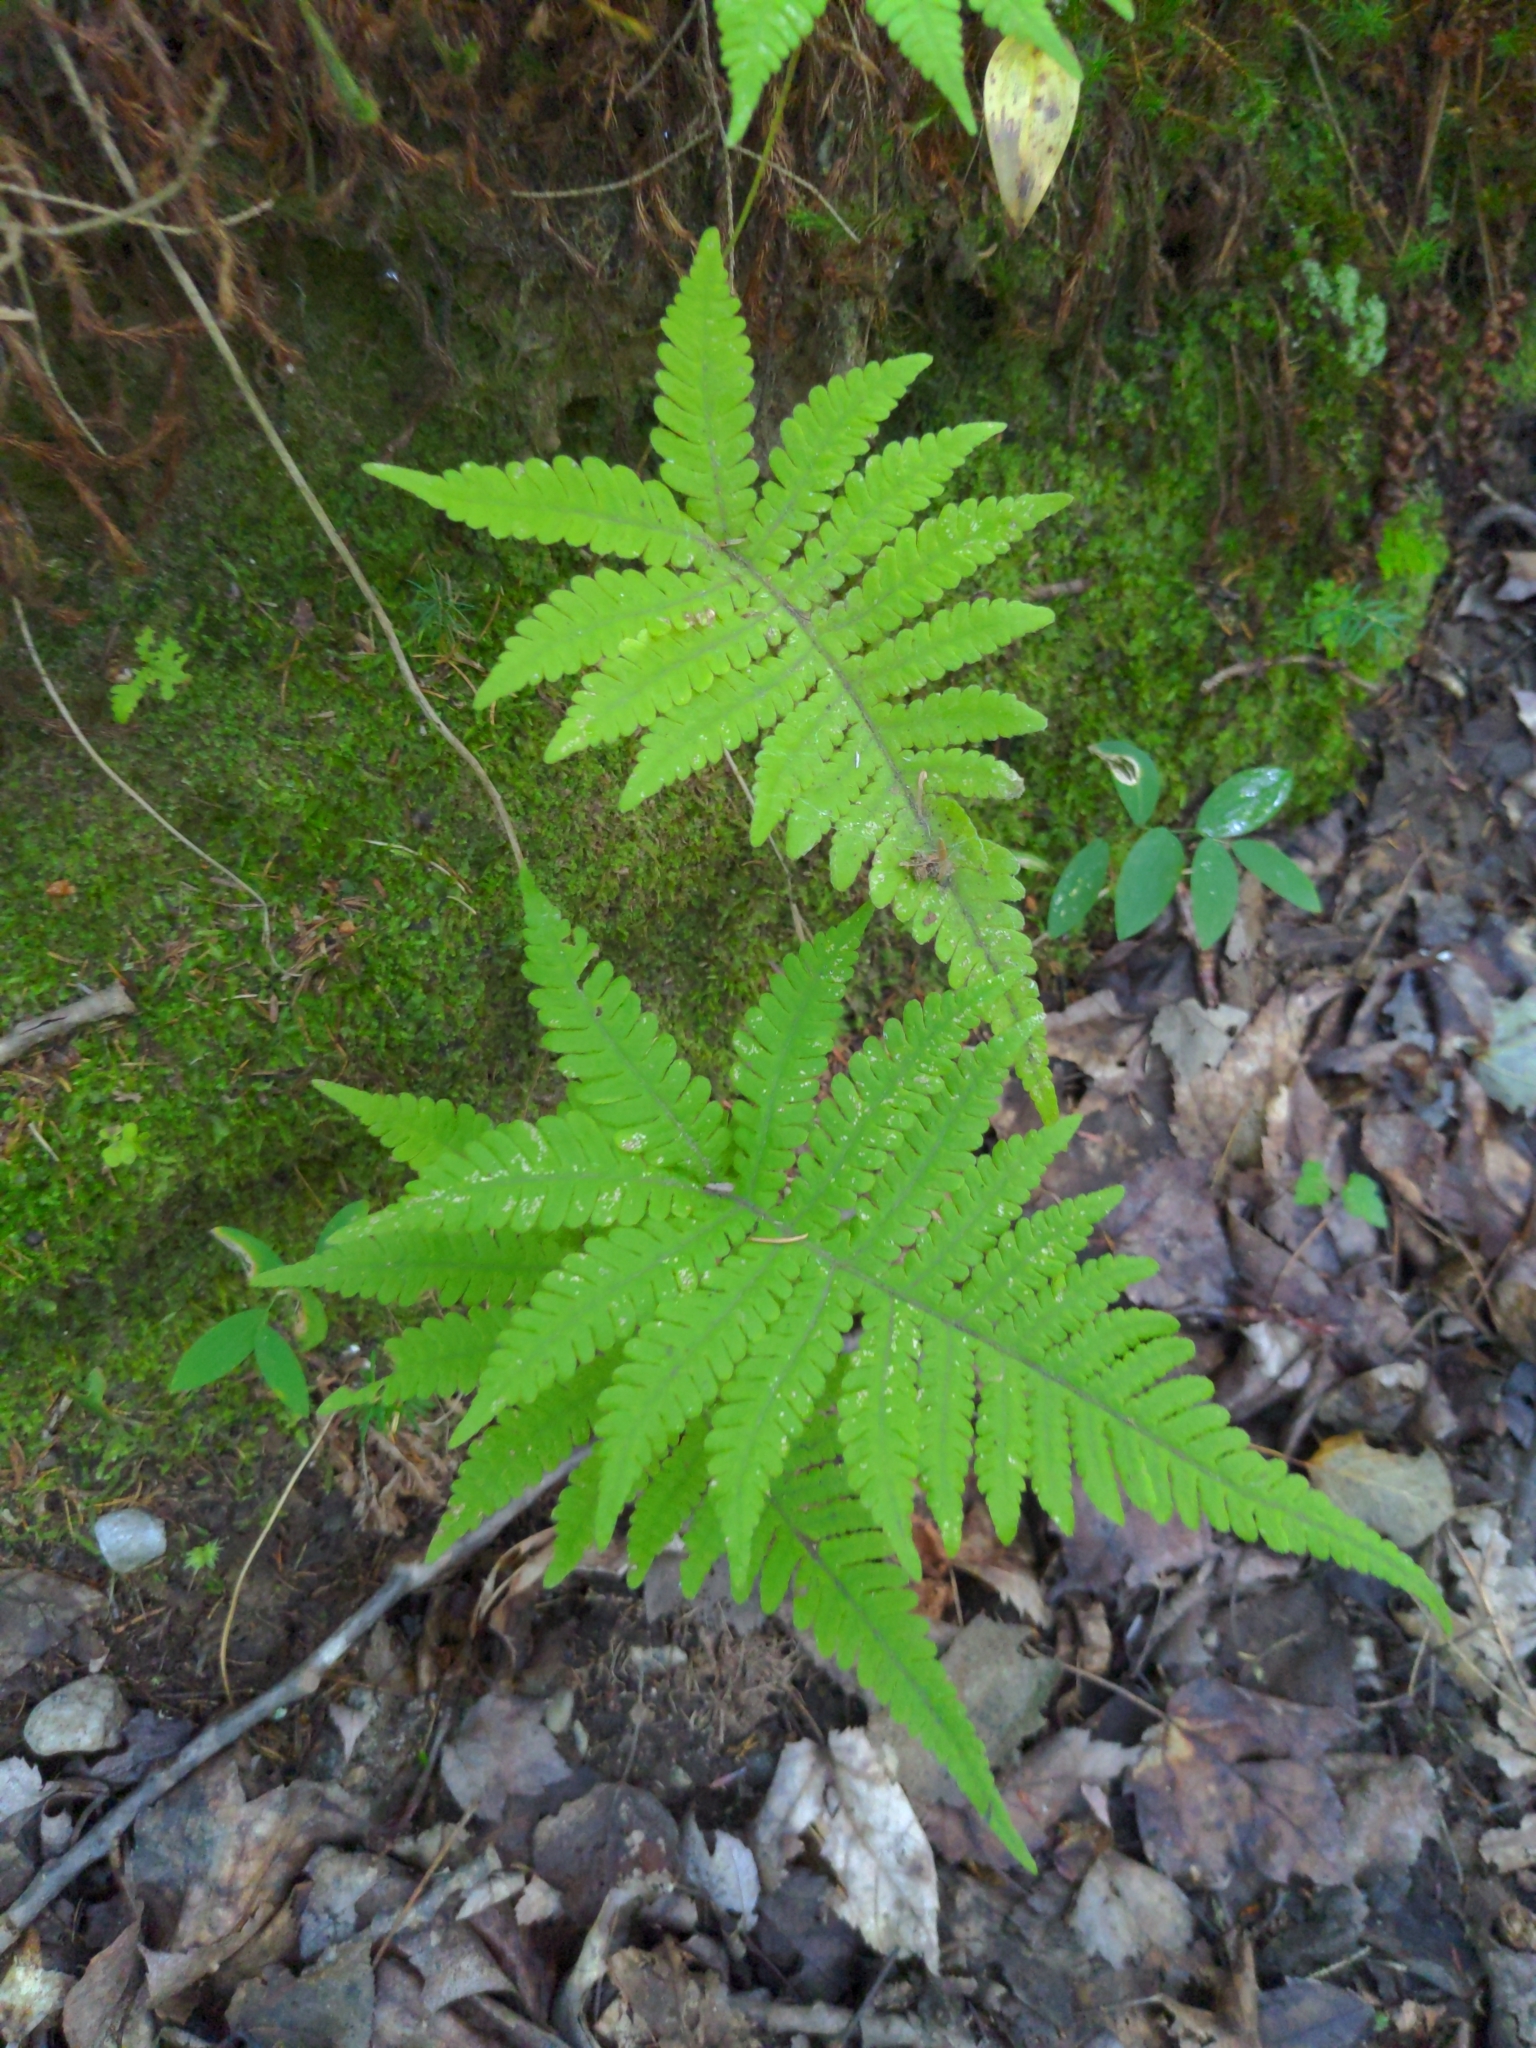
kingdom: Plantae
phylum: Tracheophyta
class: Polypodiopsida
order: Polypodiales
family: Thelypteridaceae
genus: Phegopteris
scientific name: Phegopteris connectilis
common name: Beech fern
